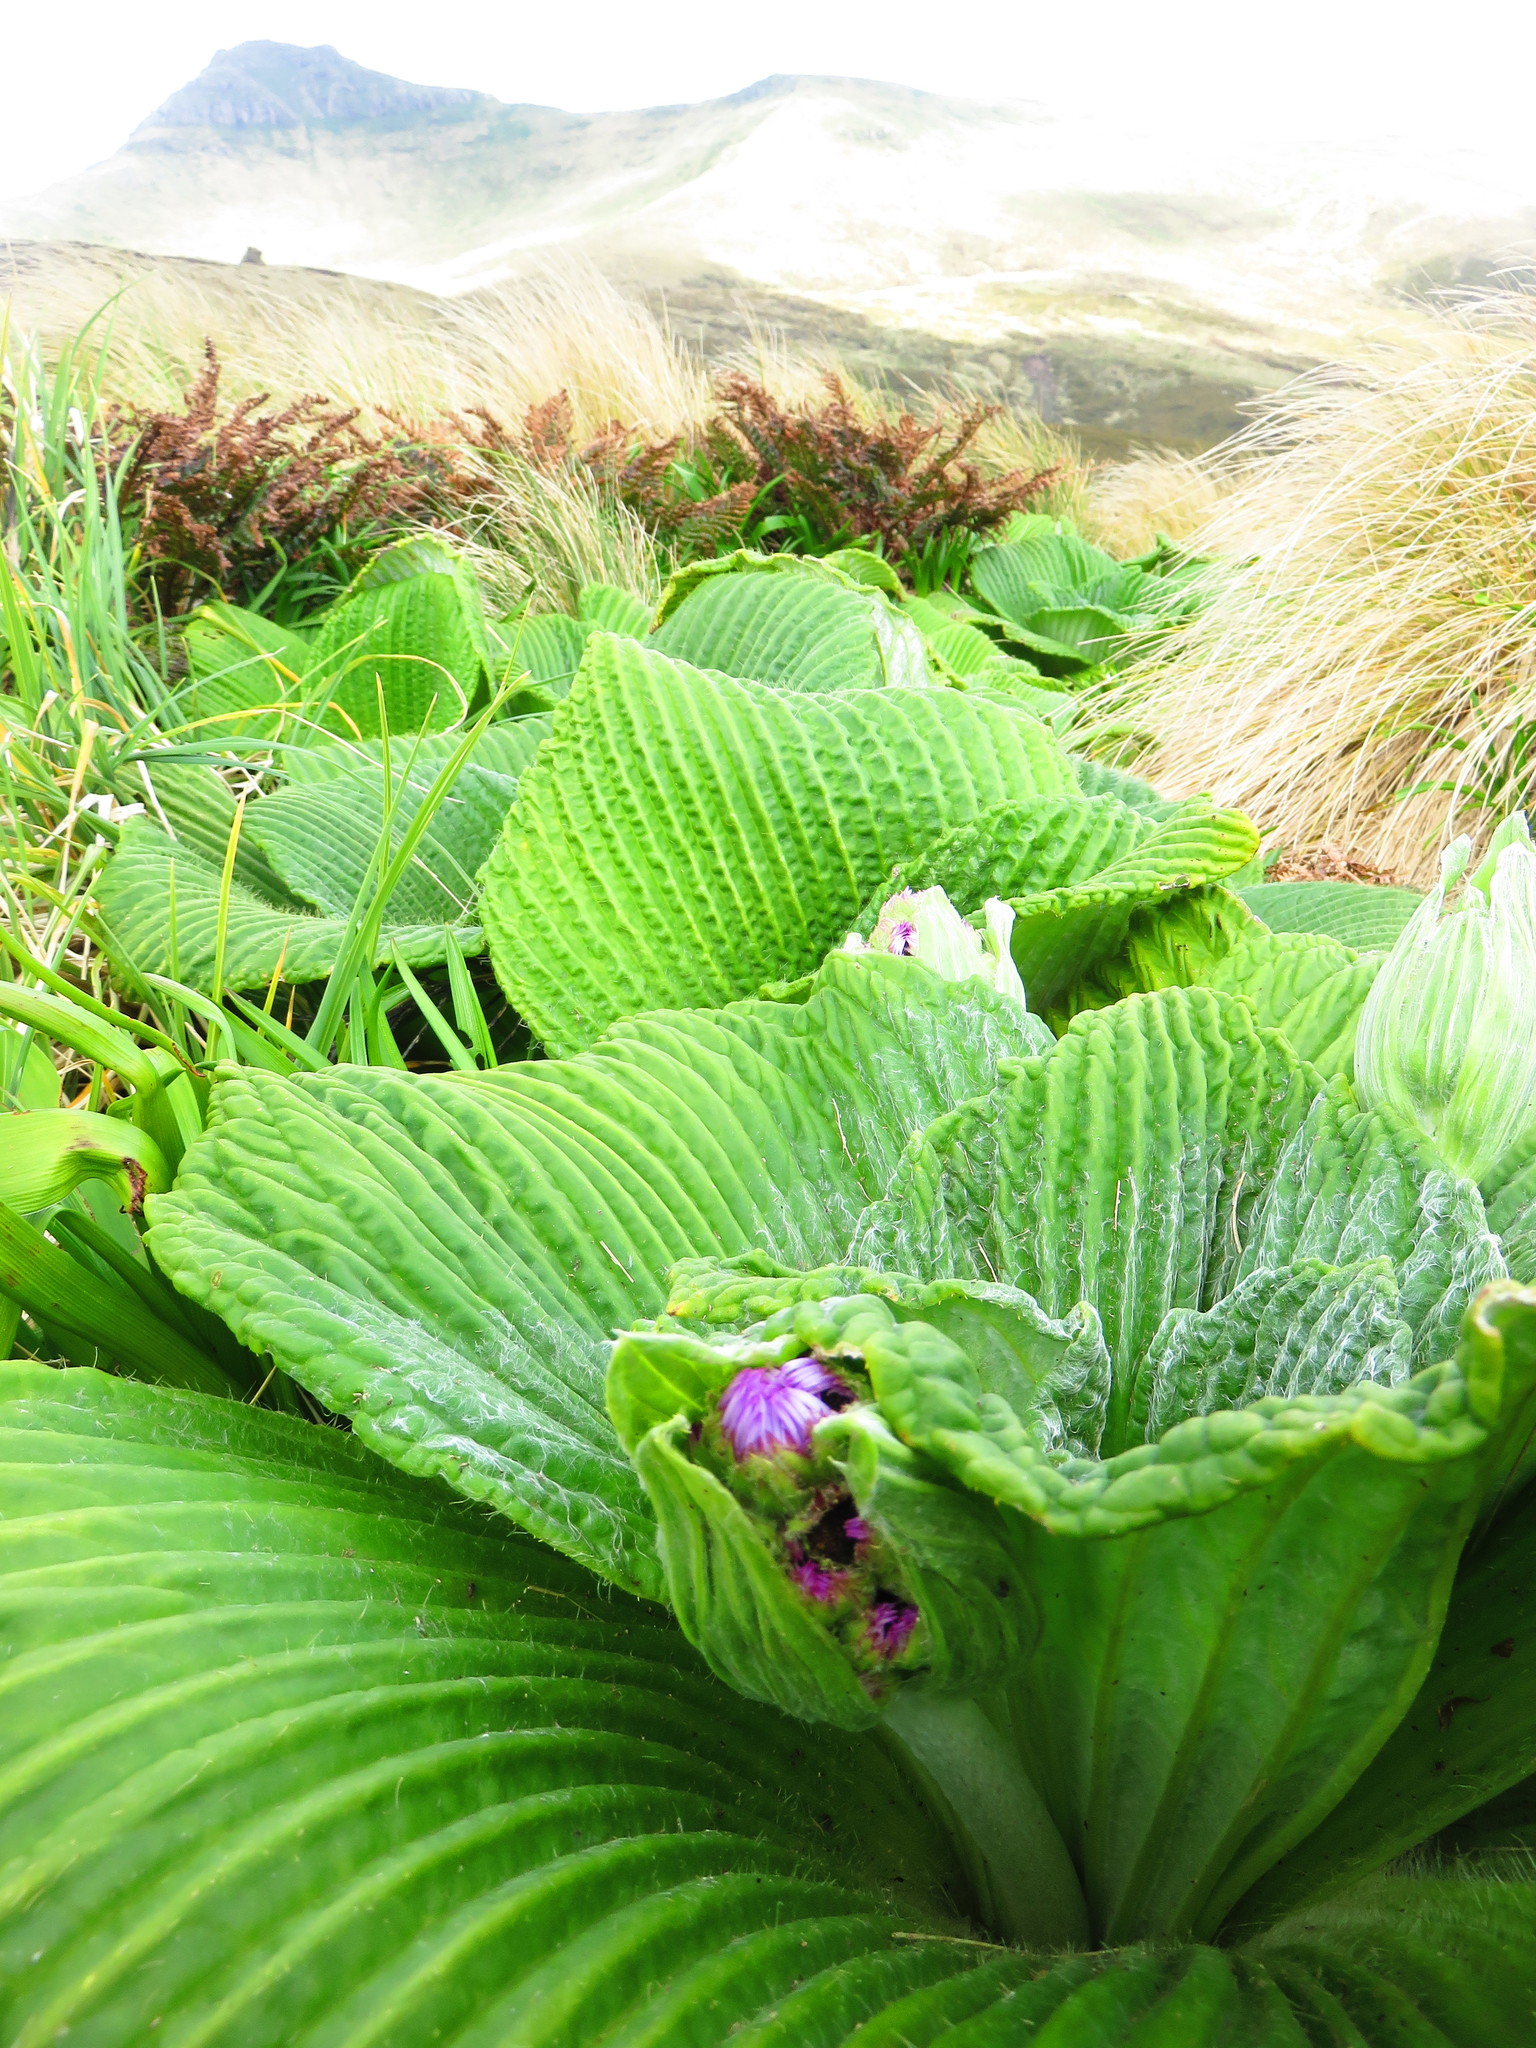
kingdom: Plantae
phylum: Tracheophyta
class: Magnoliopsida
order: Asterales
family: Asteraceae
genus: Pleurophyllum
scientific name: Pleurophyllum speciosum
